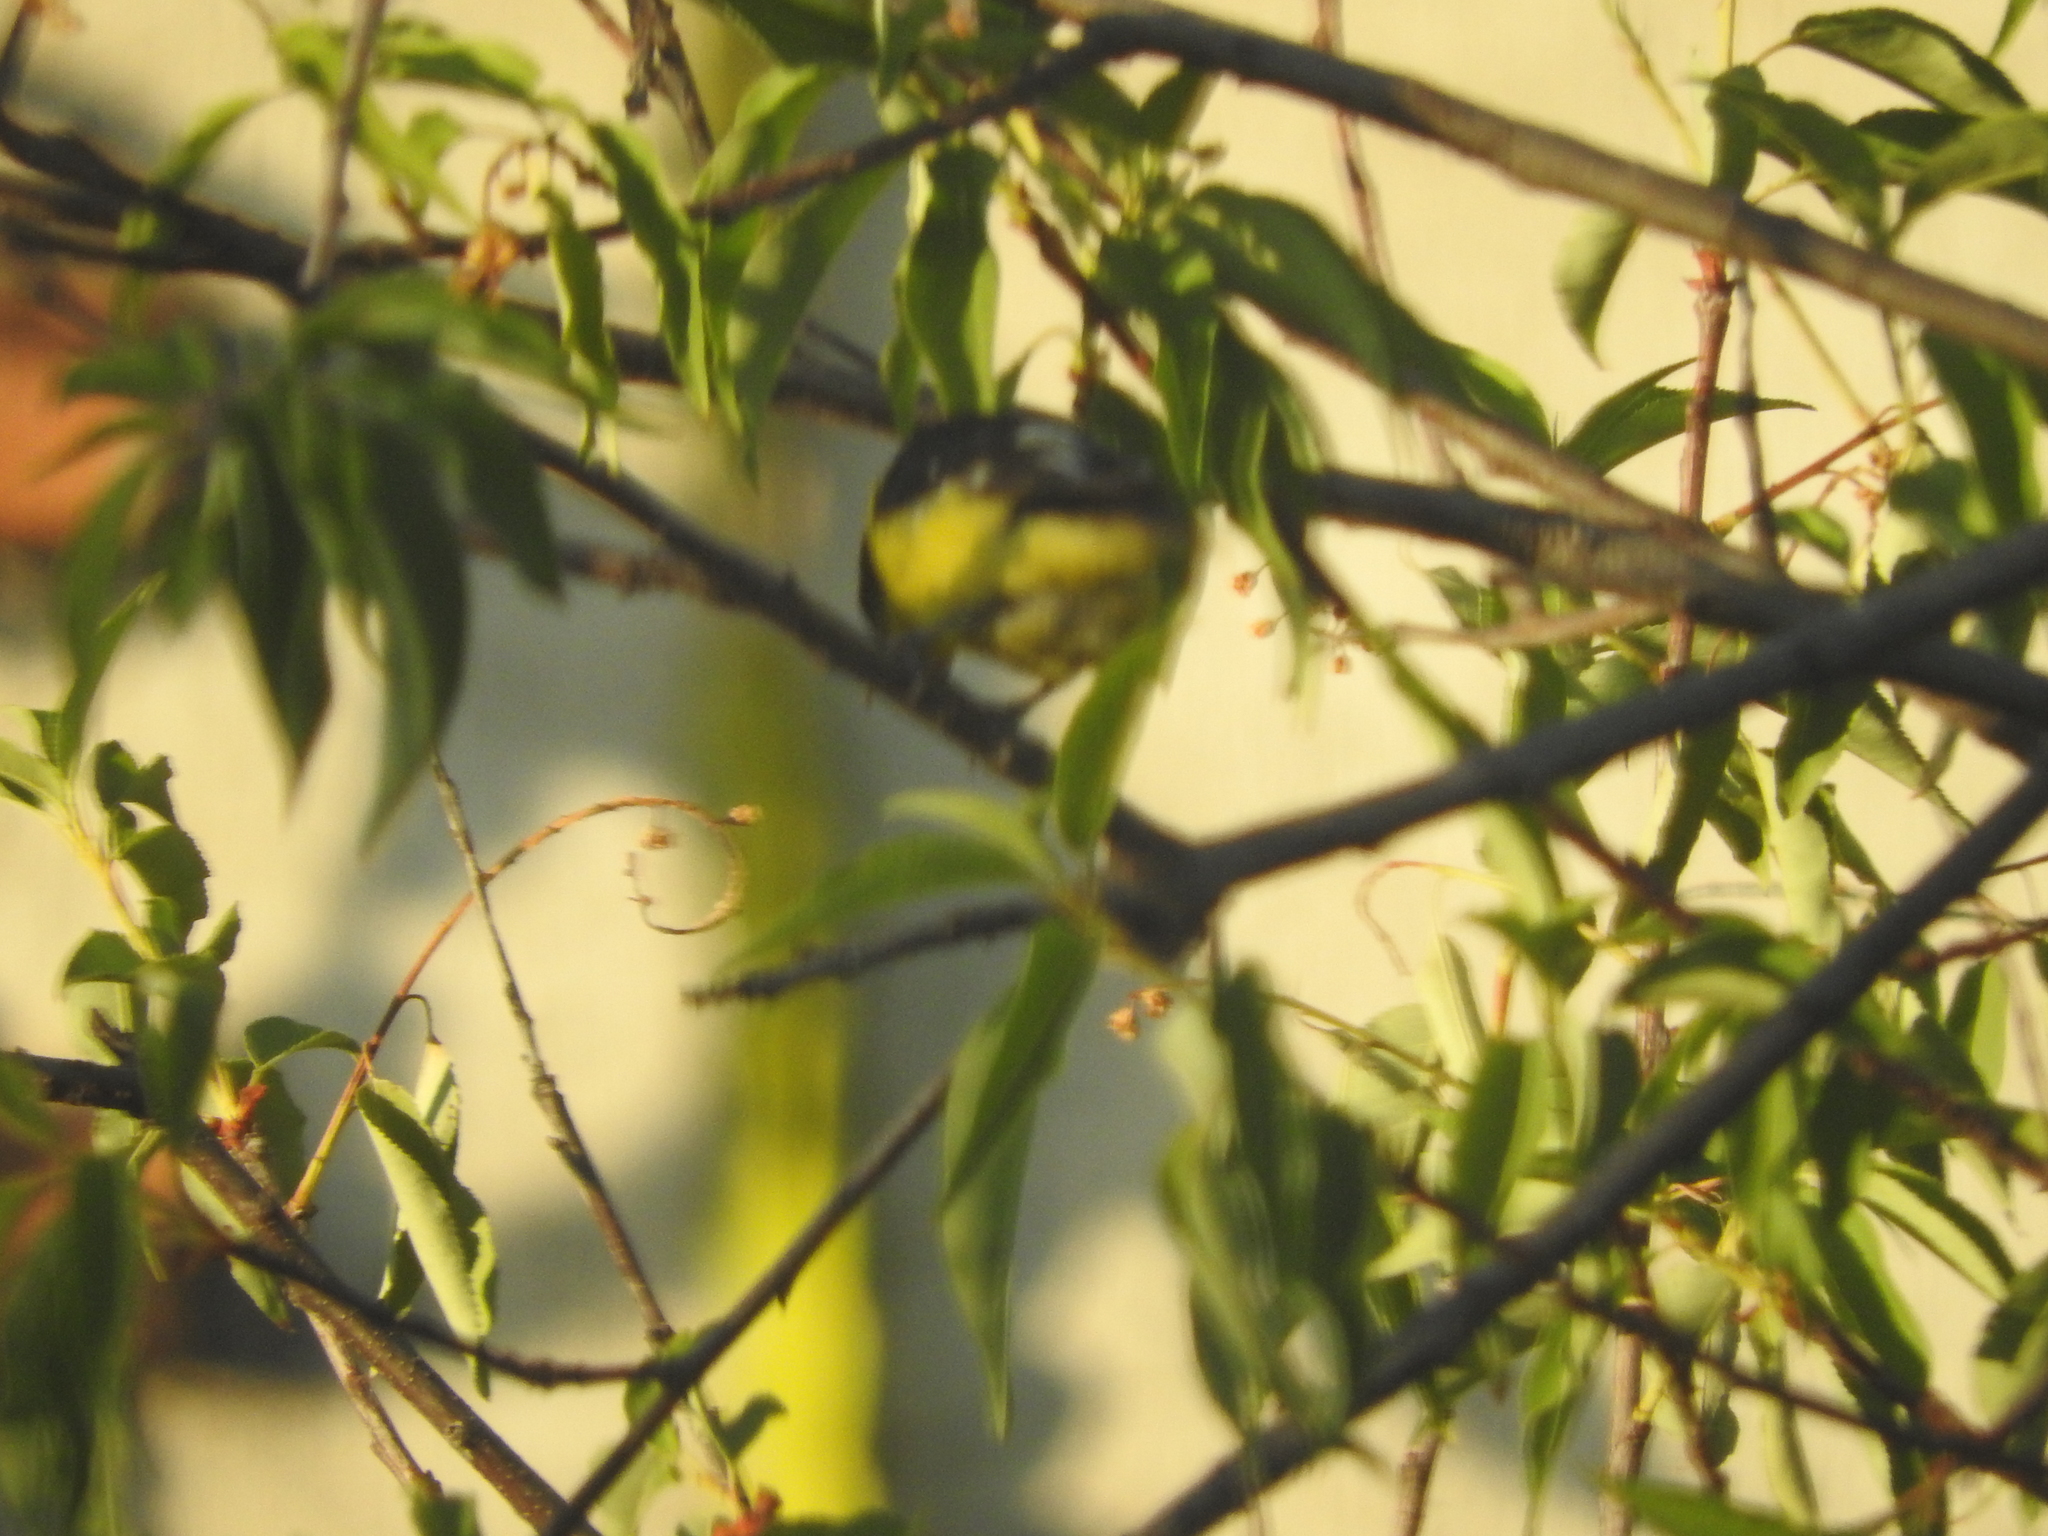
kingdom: Animalia
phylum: Chordata
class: Aves
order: Passeriformes
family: Fringillidae
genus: Spinus
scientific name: Spinus psaltria
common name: Lesser goldfinch
